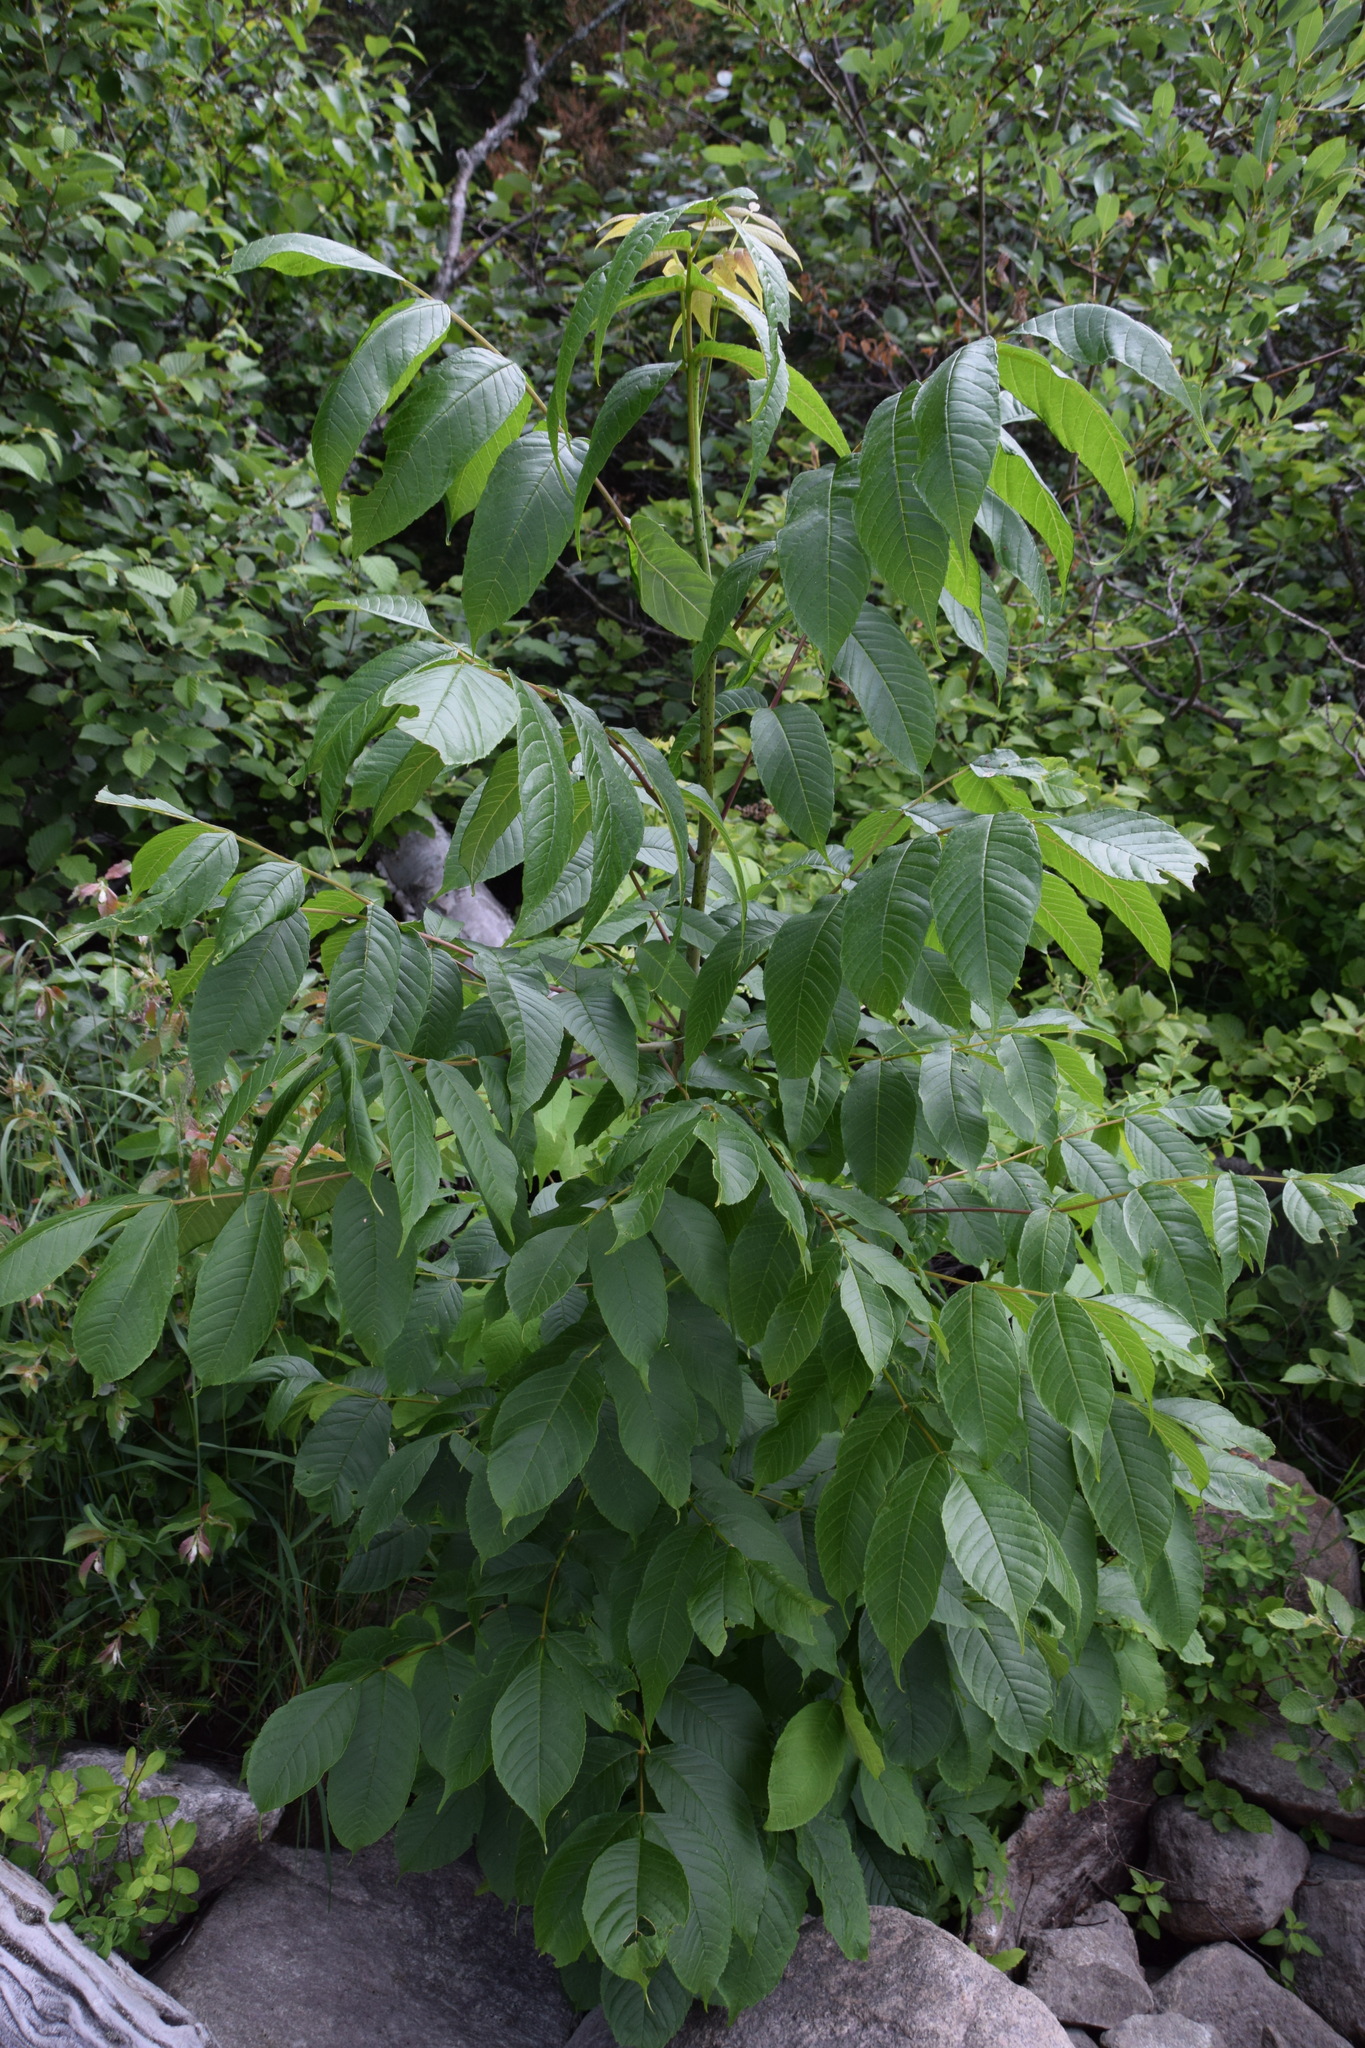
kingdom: Plantae
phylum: Tracheophyta
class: Magnoliopsida
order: Lamiales
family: Oleaceae
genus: Fraxinus
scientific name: Fraxinus nigra
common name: Black ash
